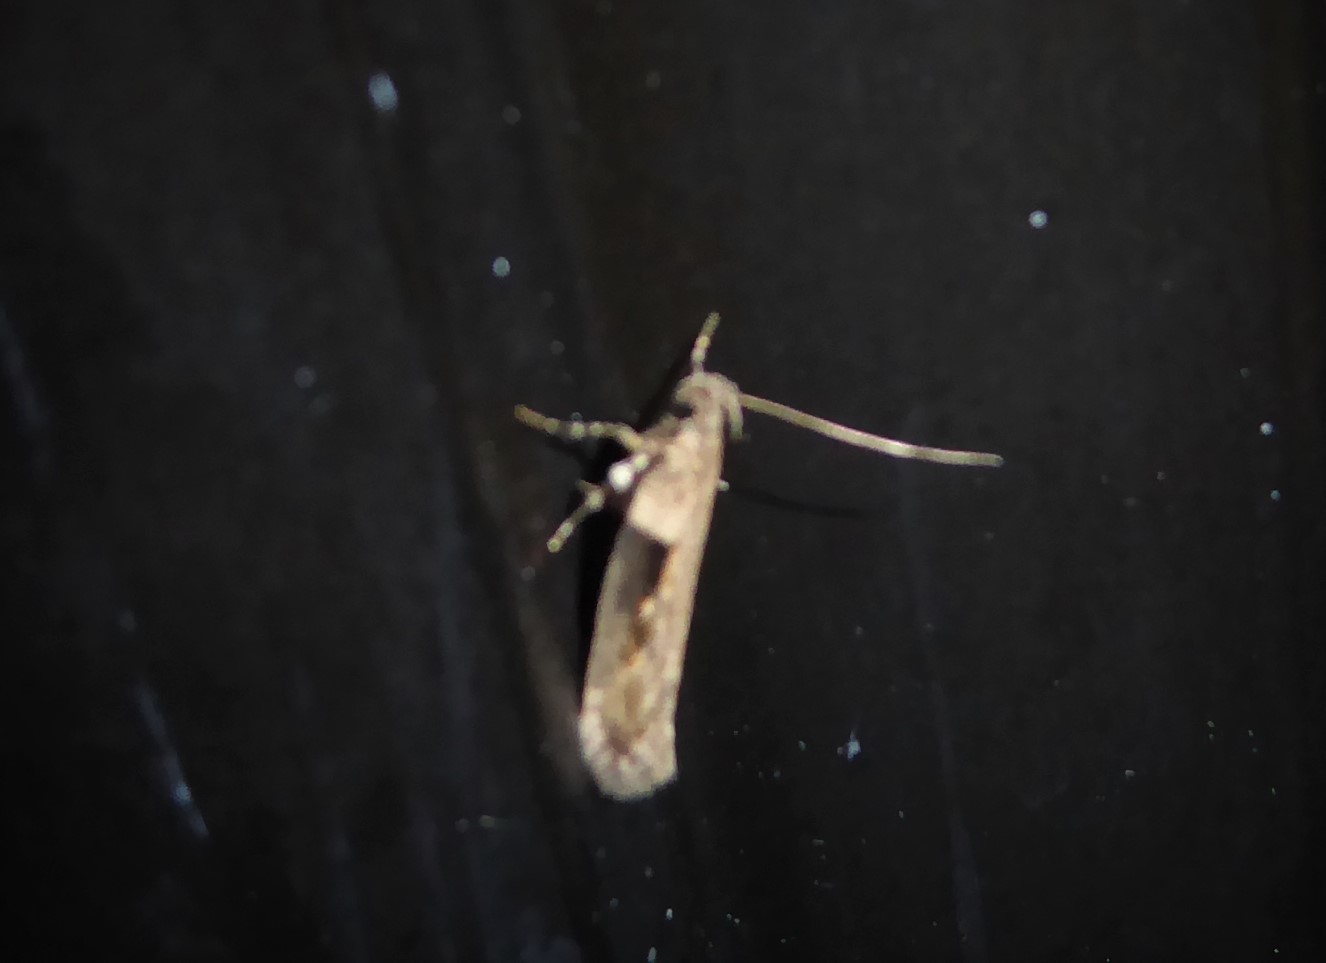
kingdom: Animalia
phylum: Arthropoda
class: Insecta
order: Lepidoptera
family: Gelechiidae
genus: Symmetrischema
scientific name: Symmetrischema tangolias
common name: Moth
